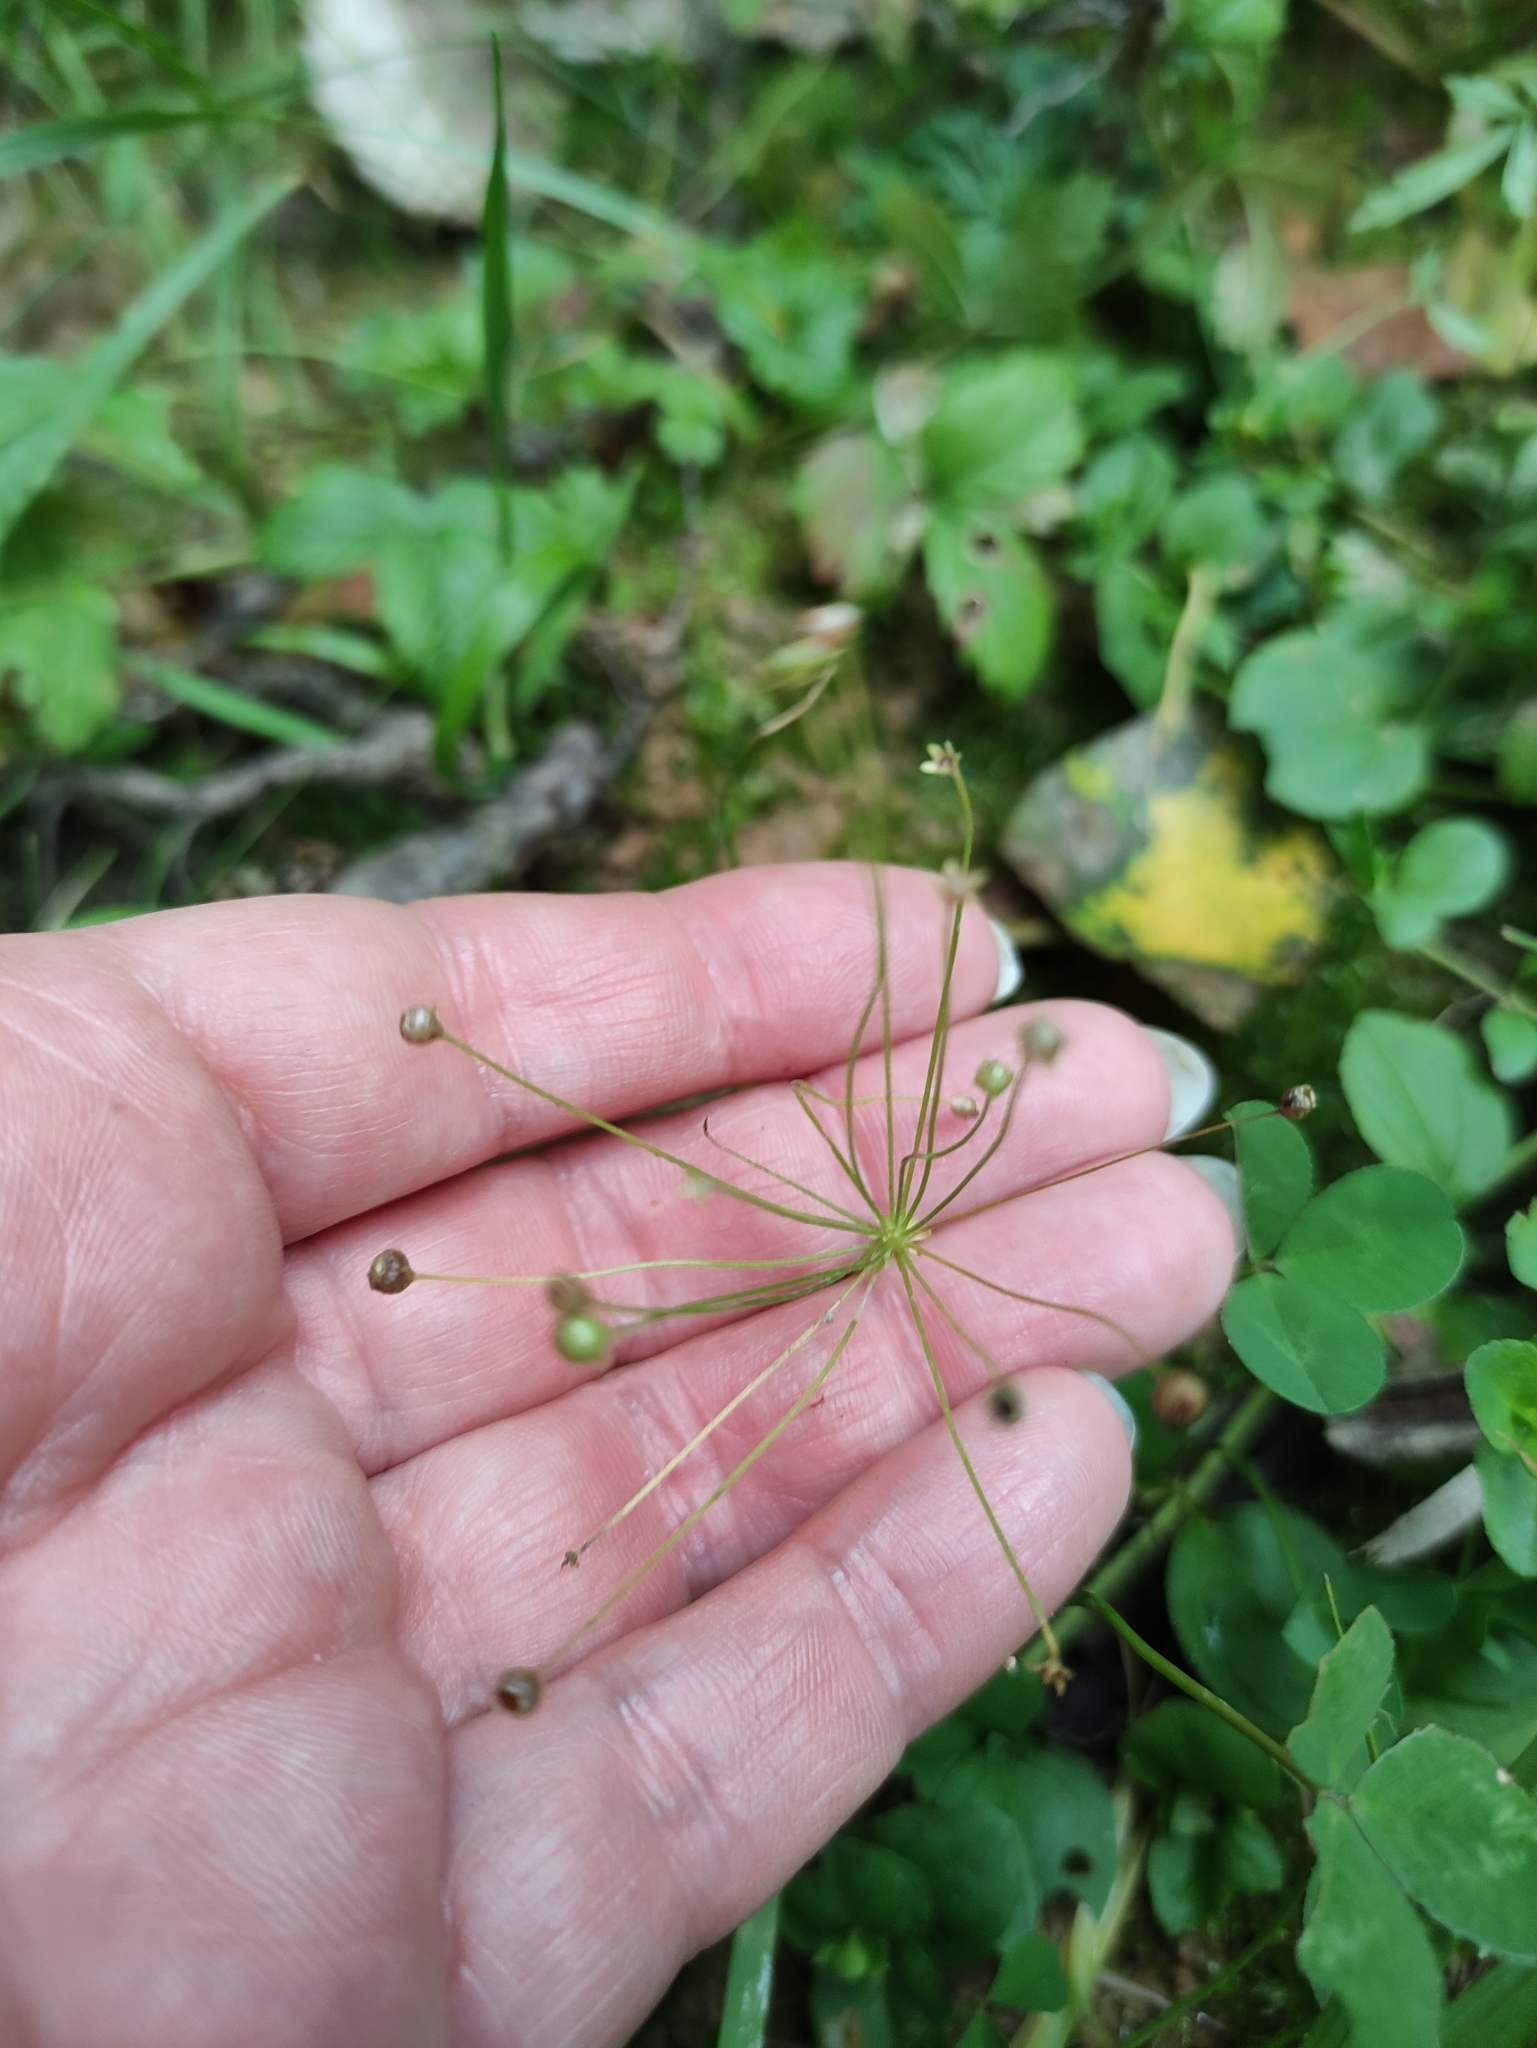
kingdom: Plantae
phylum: Tracheophyta
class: Magnoliopsida
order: Ericales
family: Primulaceae
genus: Androsace
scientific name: Androsace filiformis
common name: Filiform rock jasmine
